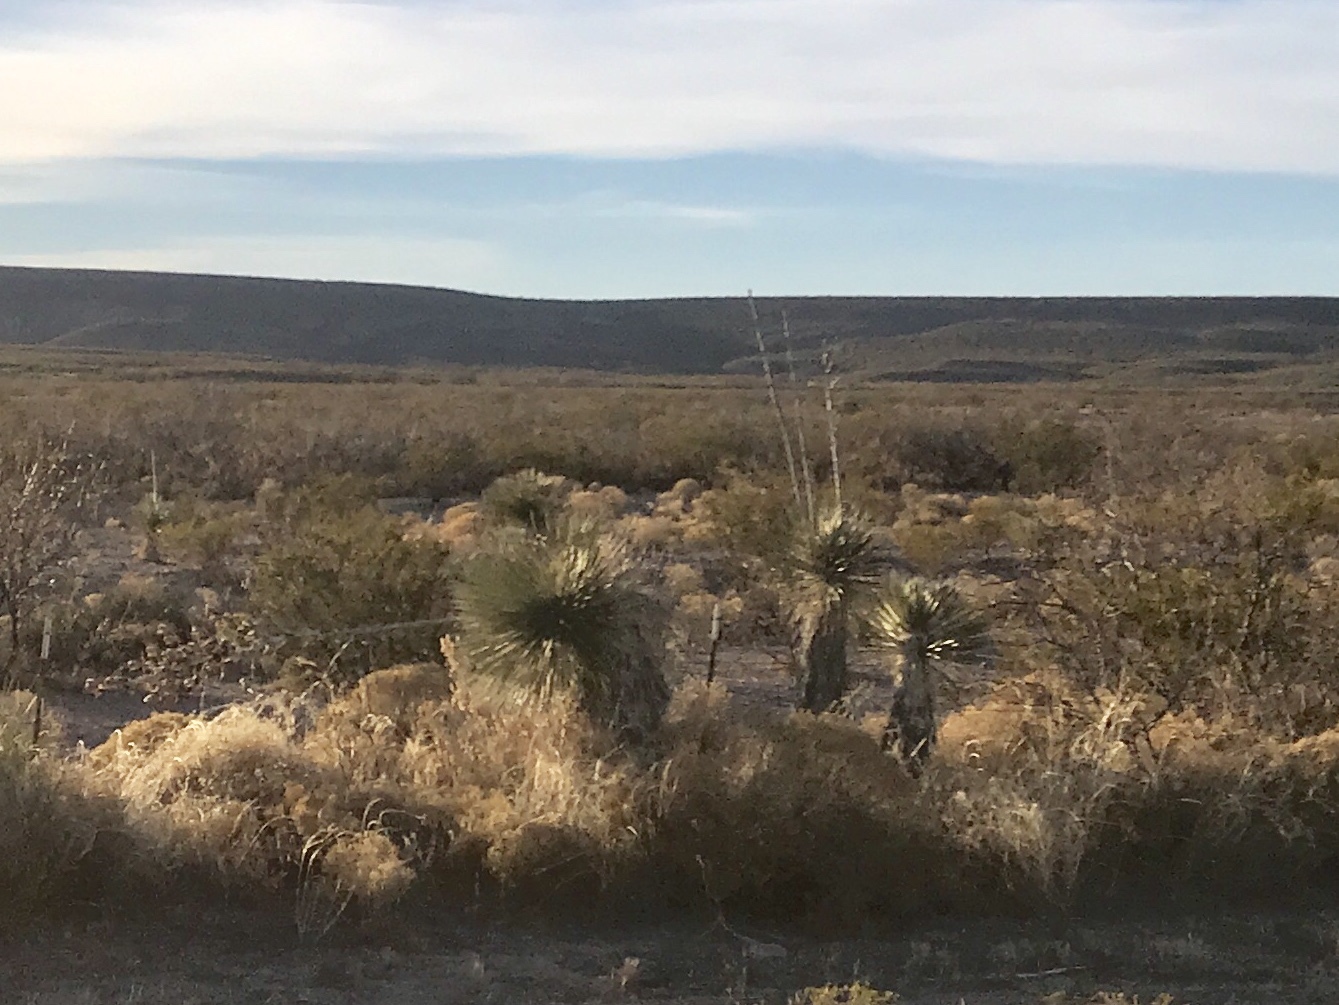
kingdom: Plantae
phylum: Tracheophyta
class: Liliopsida
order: Asparagales
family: Asparagaceae
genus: Yucca
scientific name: Yucca elata
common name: Palmella
